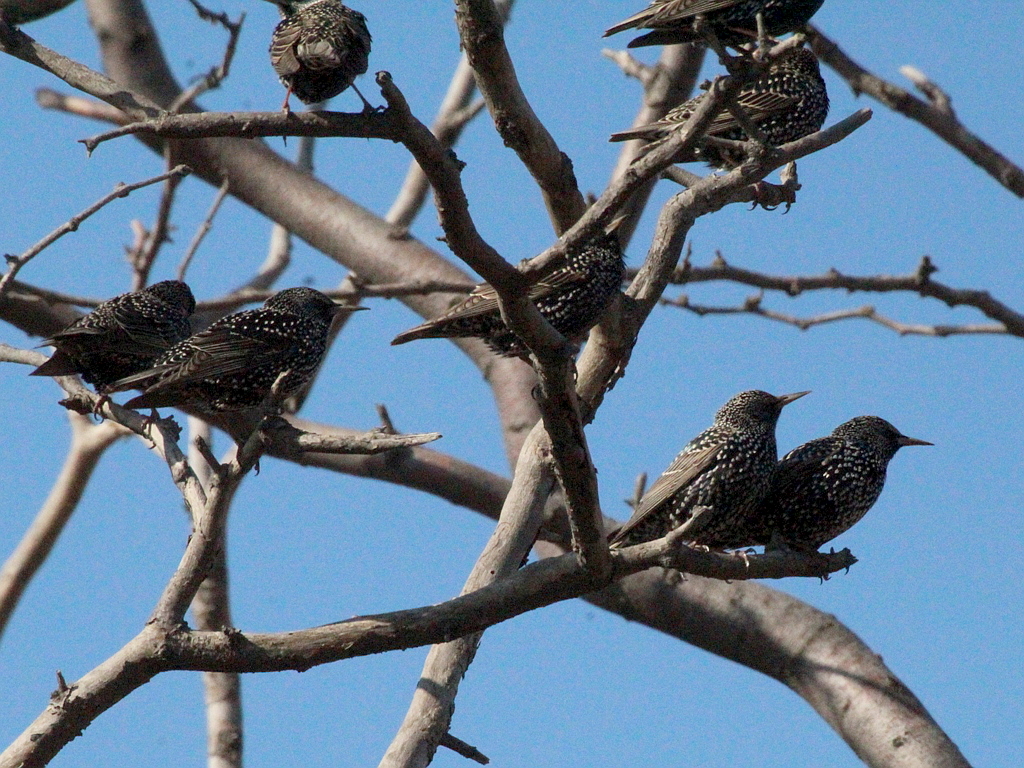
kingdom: Animalia
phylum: Chordata
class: Aves
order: Passeriformes
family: Sturnidae
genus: Sturnus
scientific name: Sturnus vulgaris
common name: Common starling
